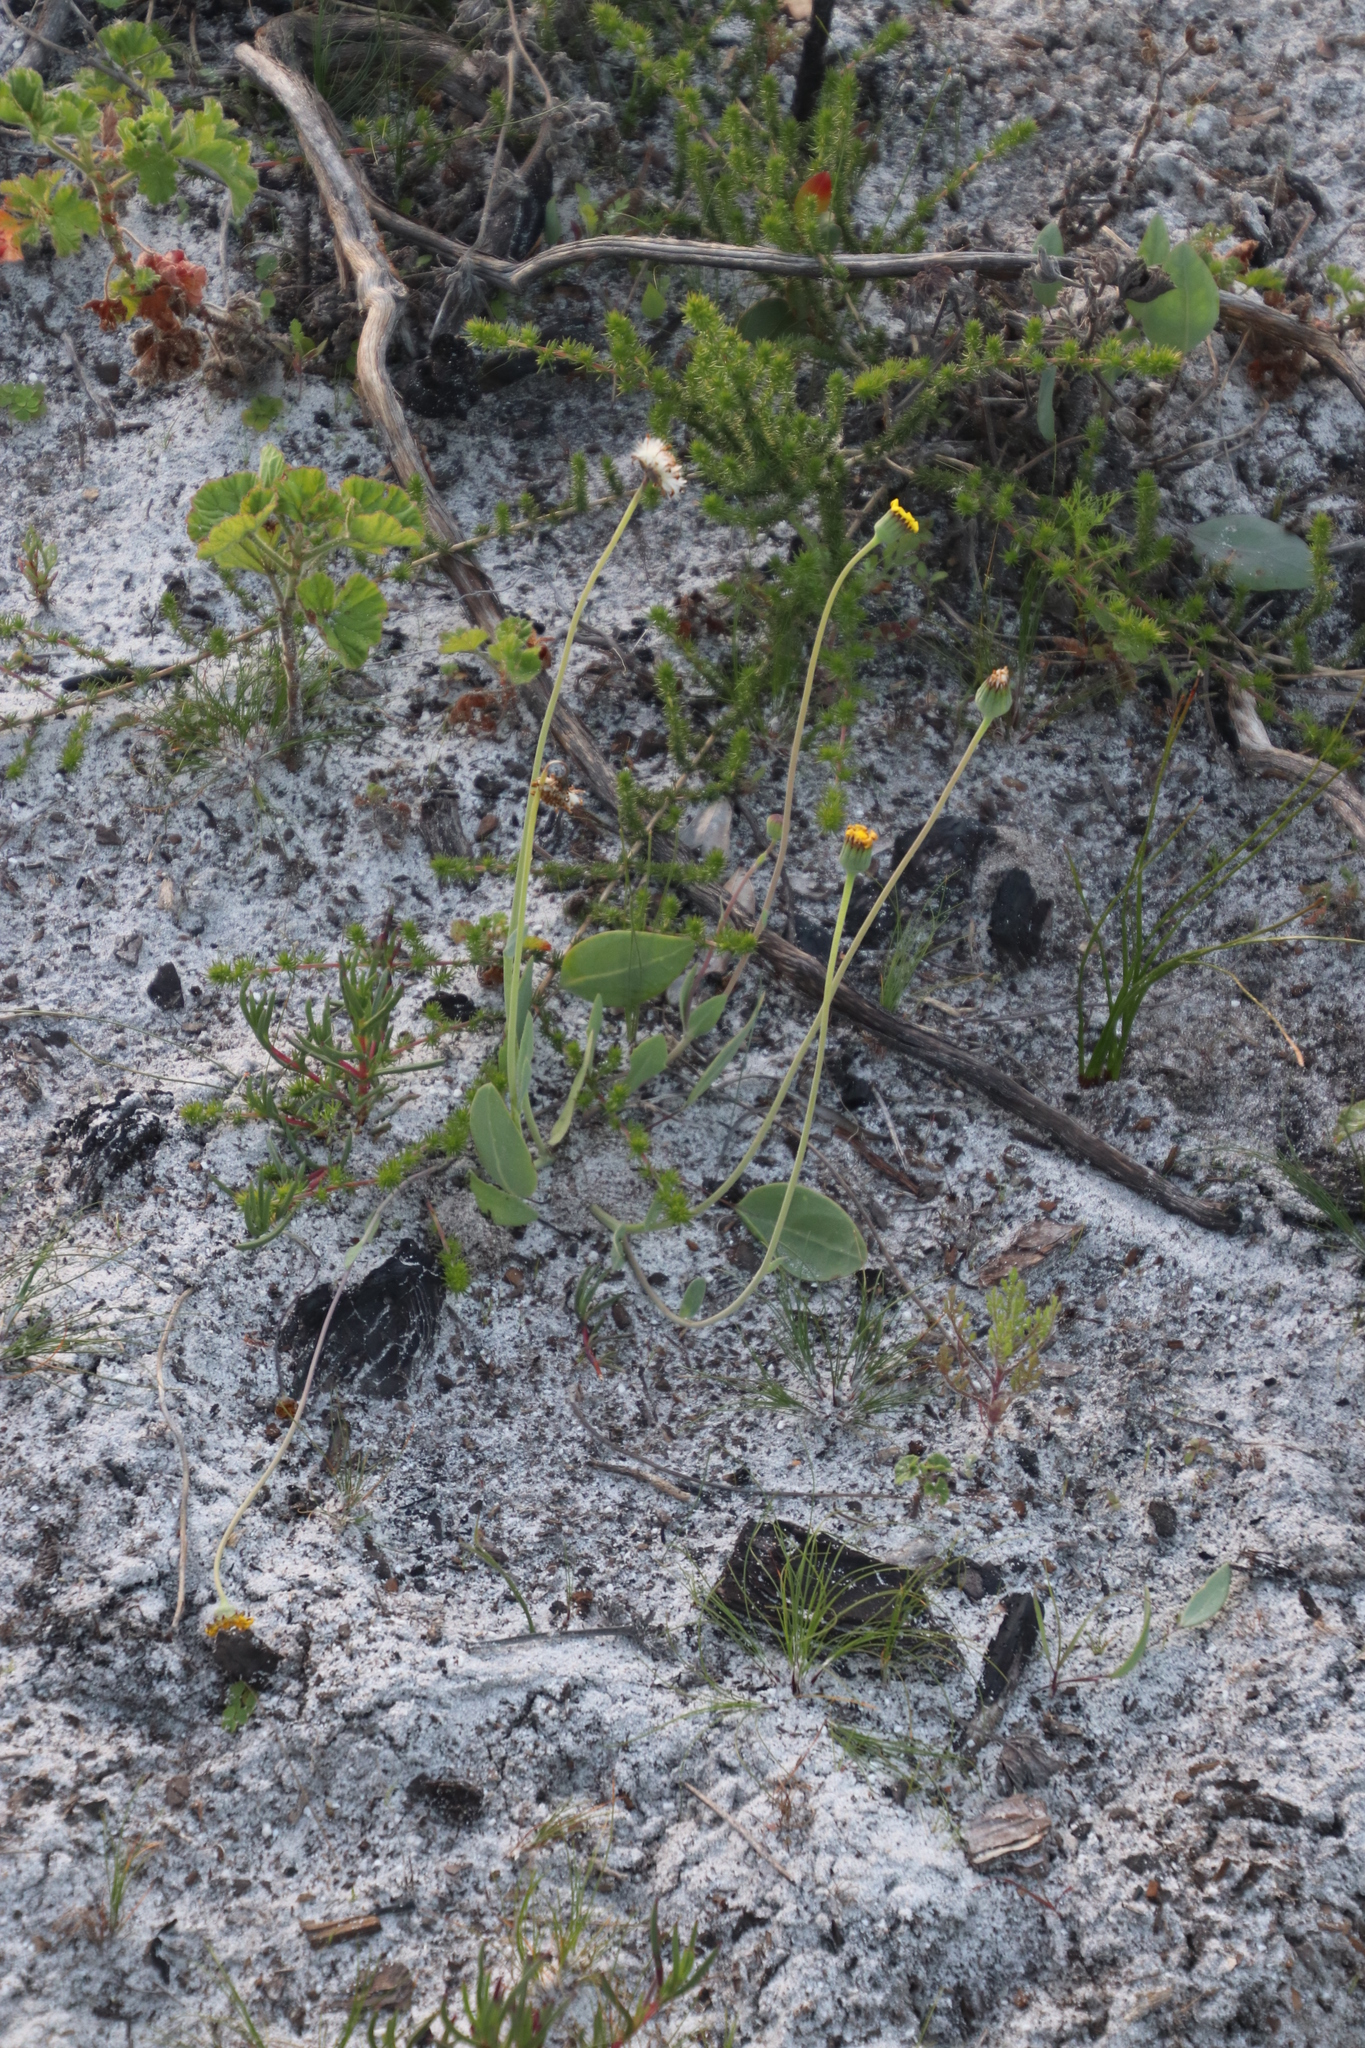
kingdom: Plantae
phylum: Tracheophyta
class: Magnoliopsida
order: Asterales
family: Asteraceae
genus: Othonna
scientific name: Othonna bulbosa
